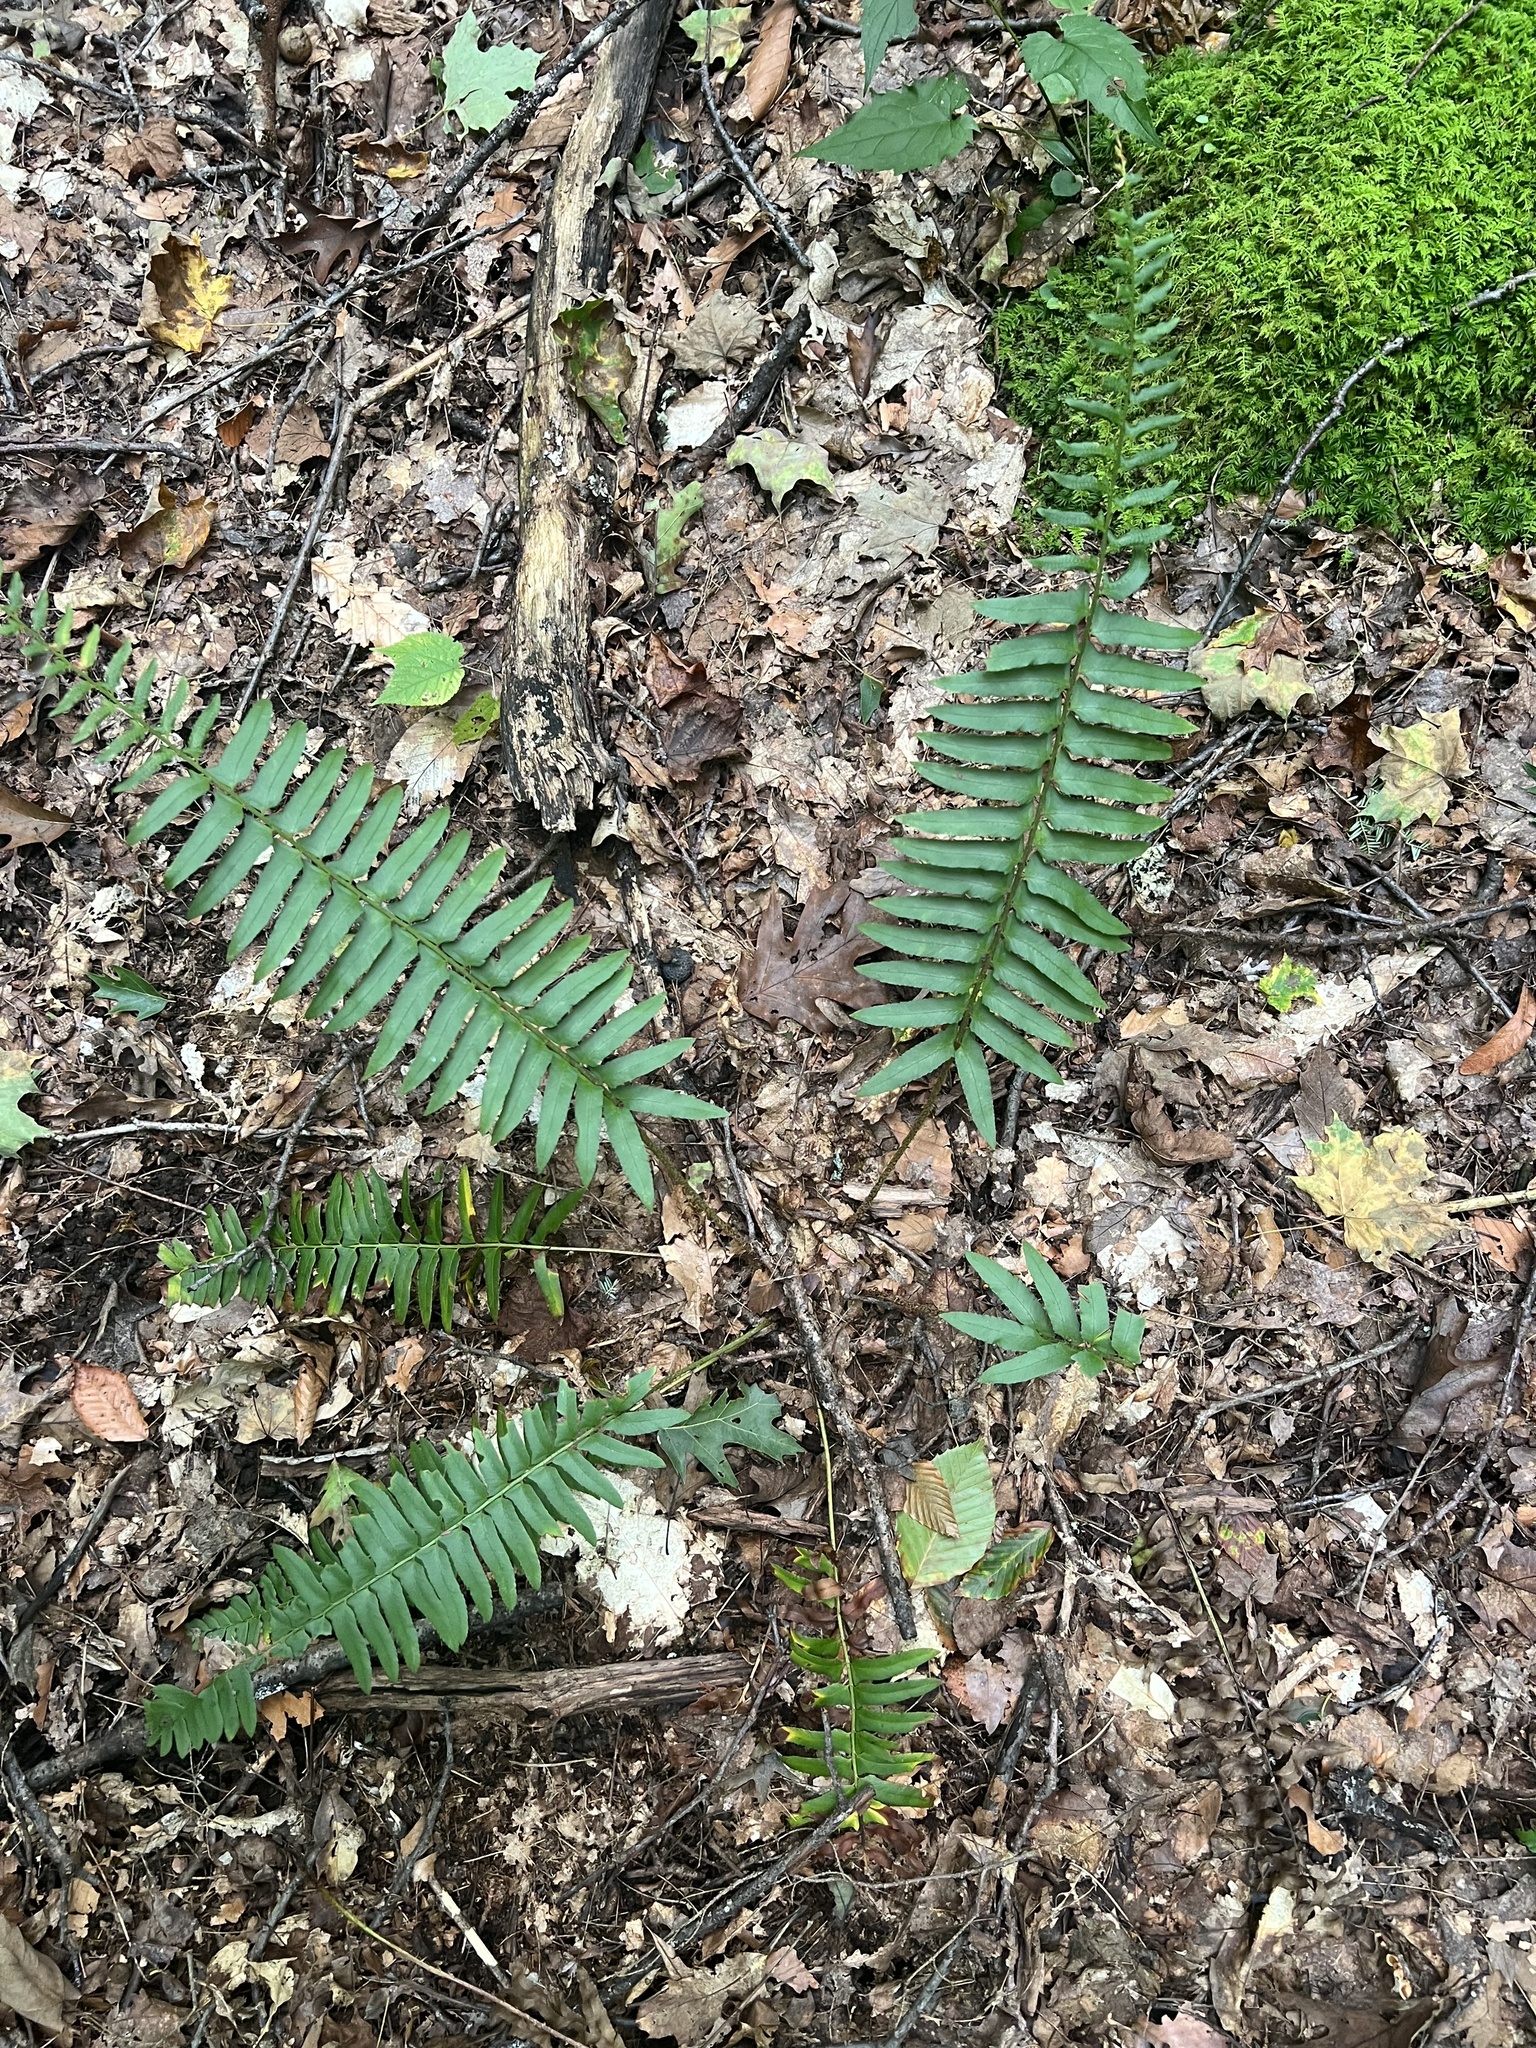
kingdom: Plantae
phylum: Tracheophyta
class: Polypodiopsida
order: Polypodiales
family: Dryopteridaceae
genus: Polystichum
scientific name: Polystichum acrostichoides
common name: Christmas fern
